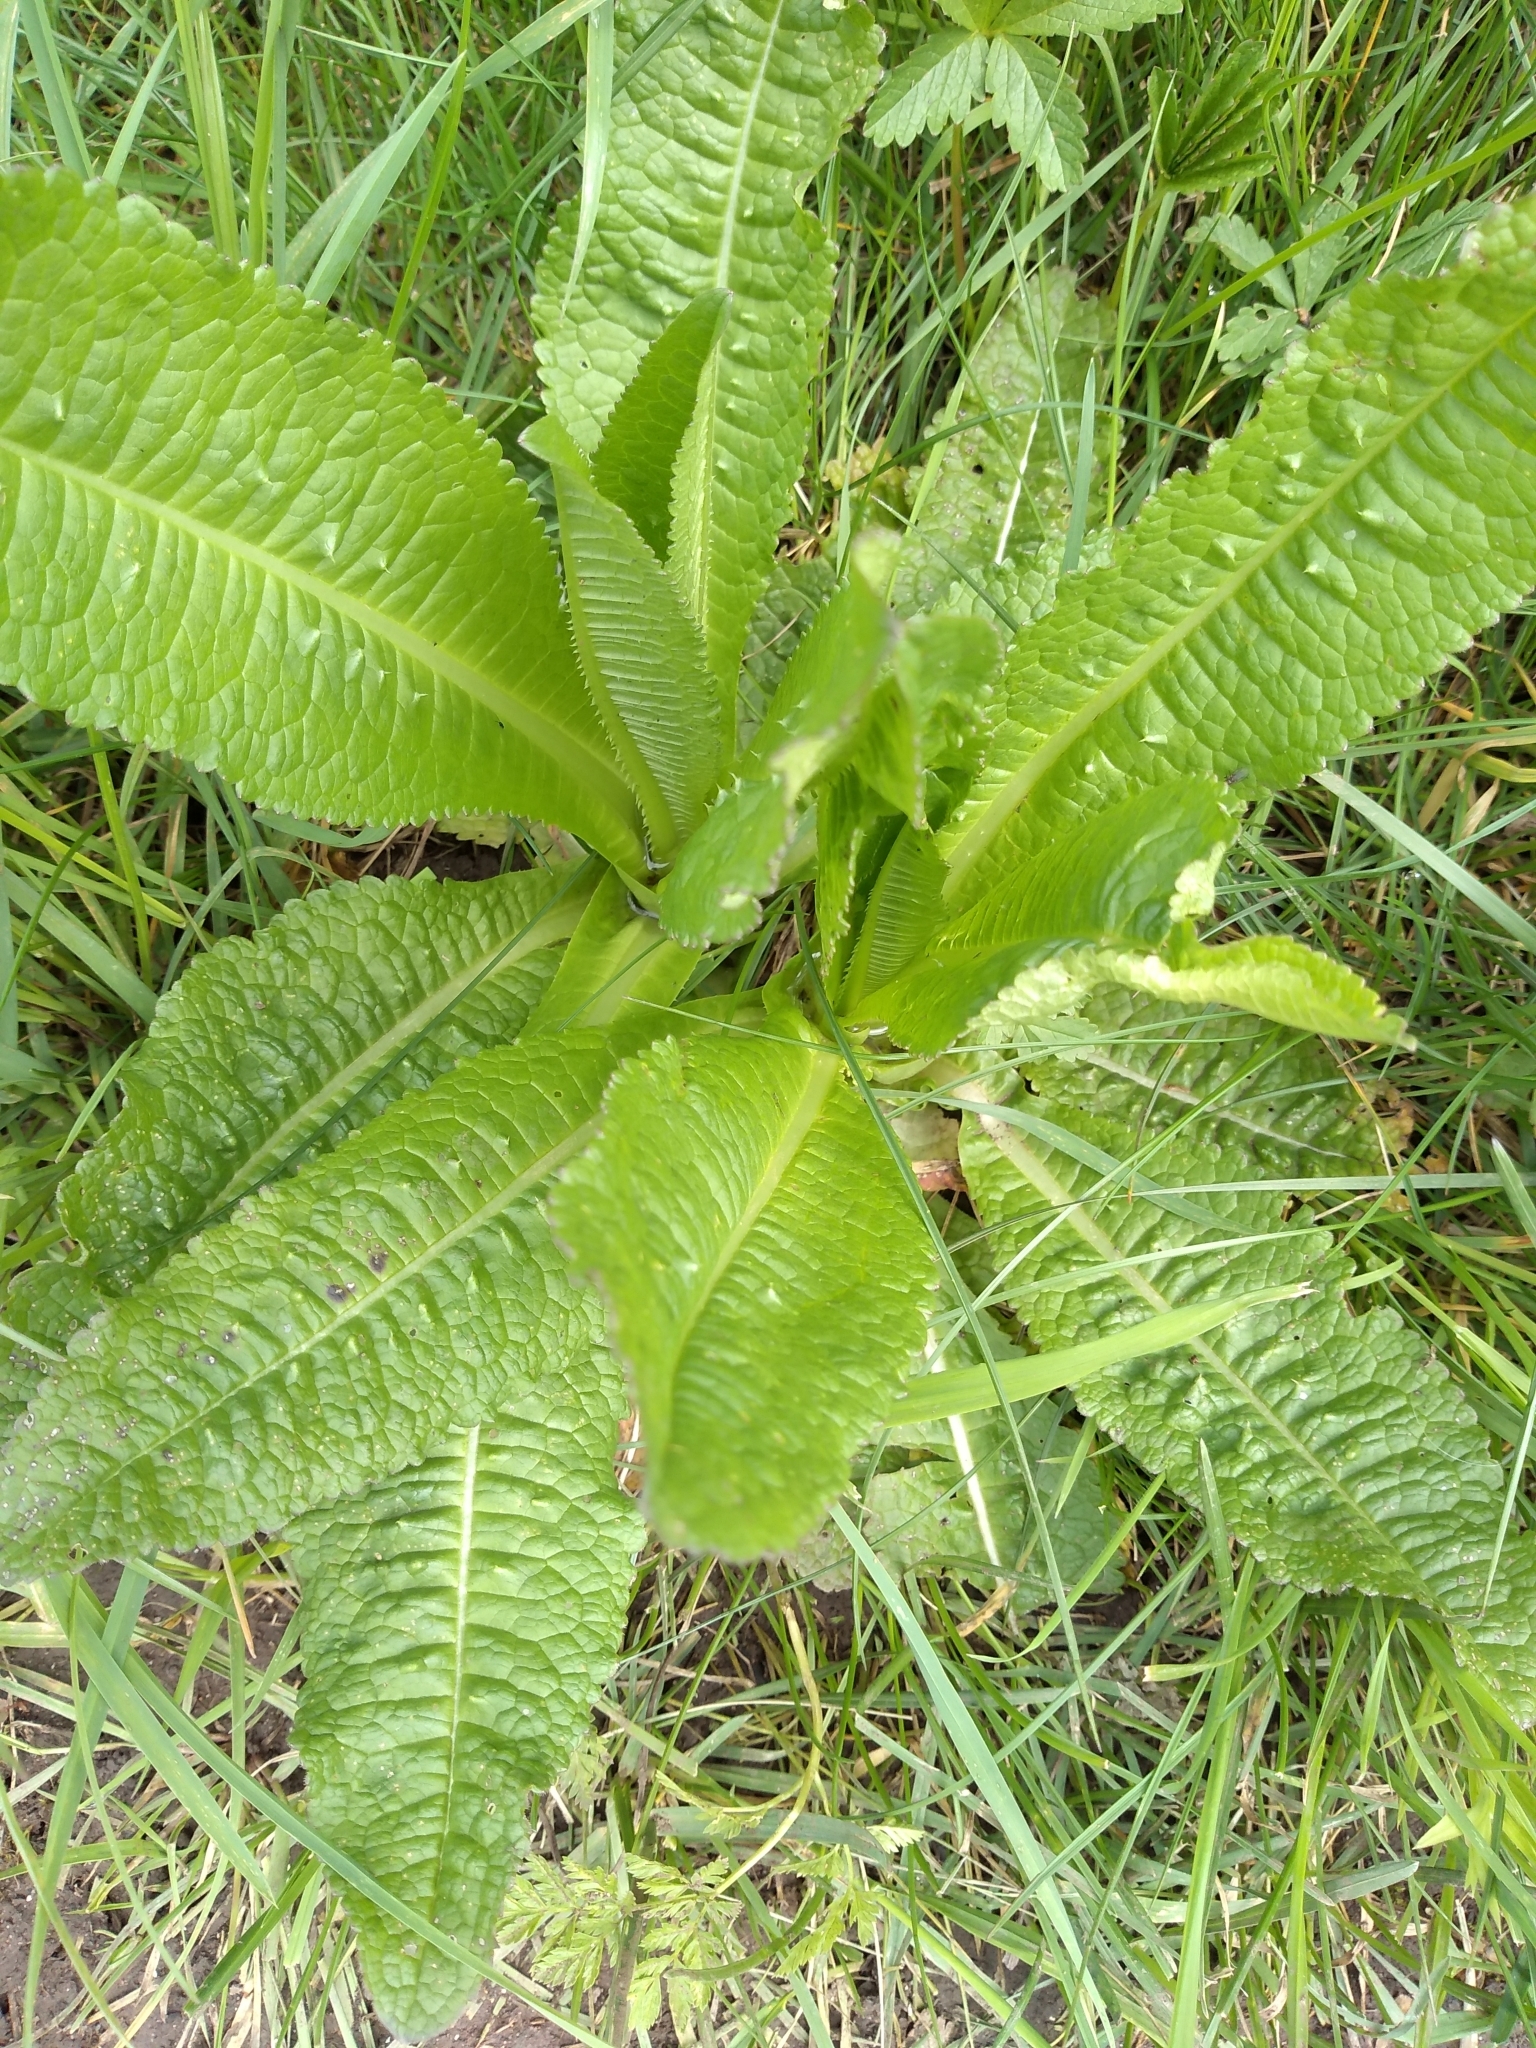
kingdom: Plantae
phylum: Tracheophyta
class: Magnoliopsida
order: Dipsacales
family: Caprifoliaceae
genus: Dipsacus
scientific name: Dipsacus fullonum
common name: Teasel
